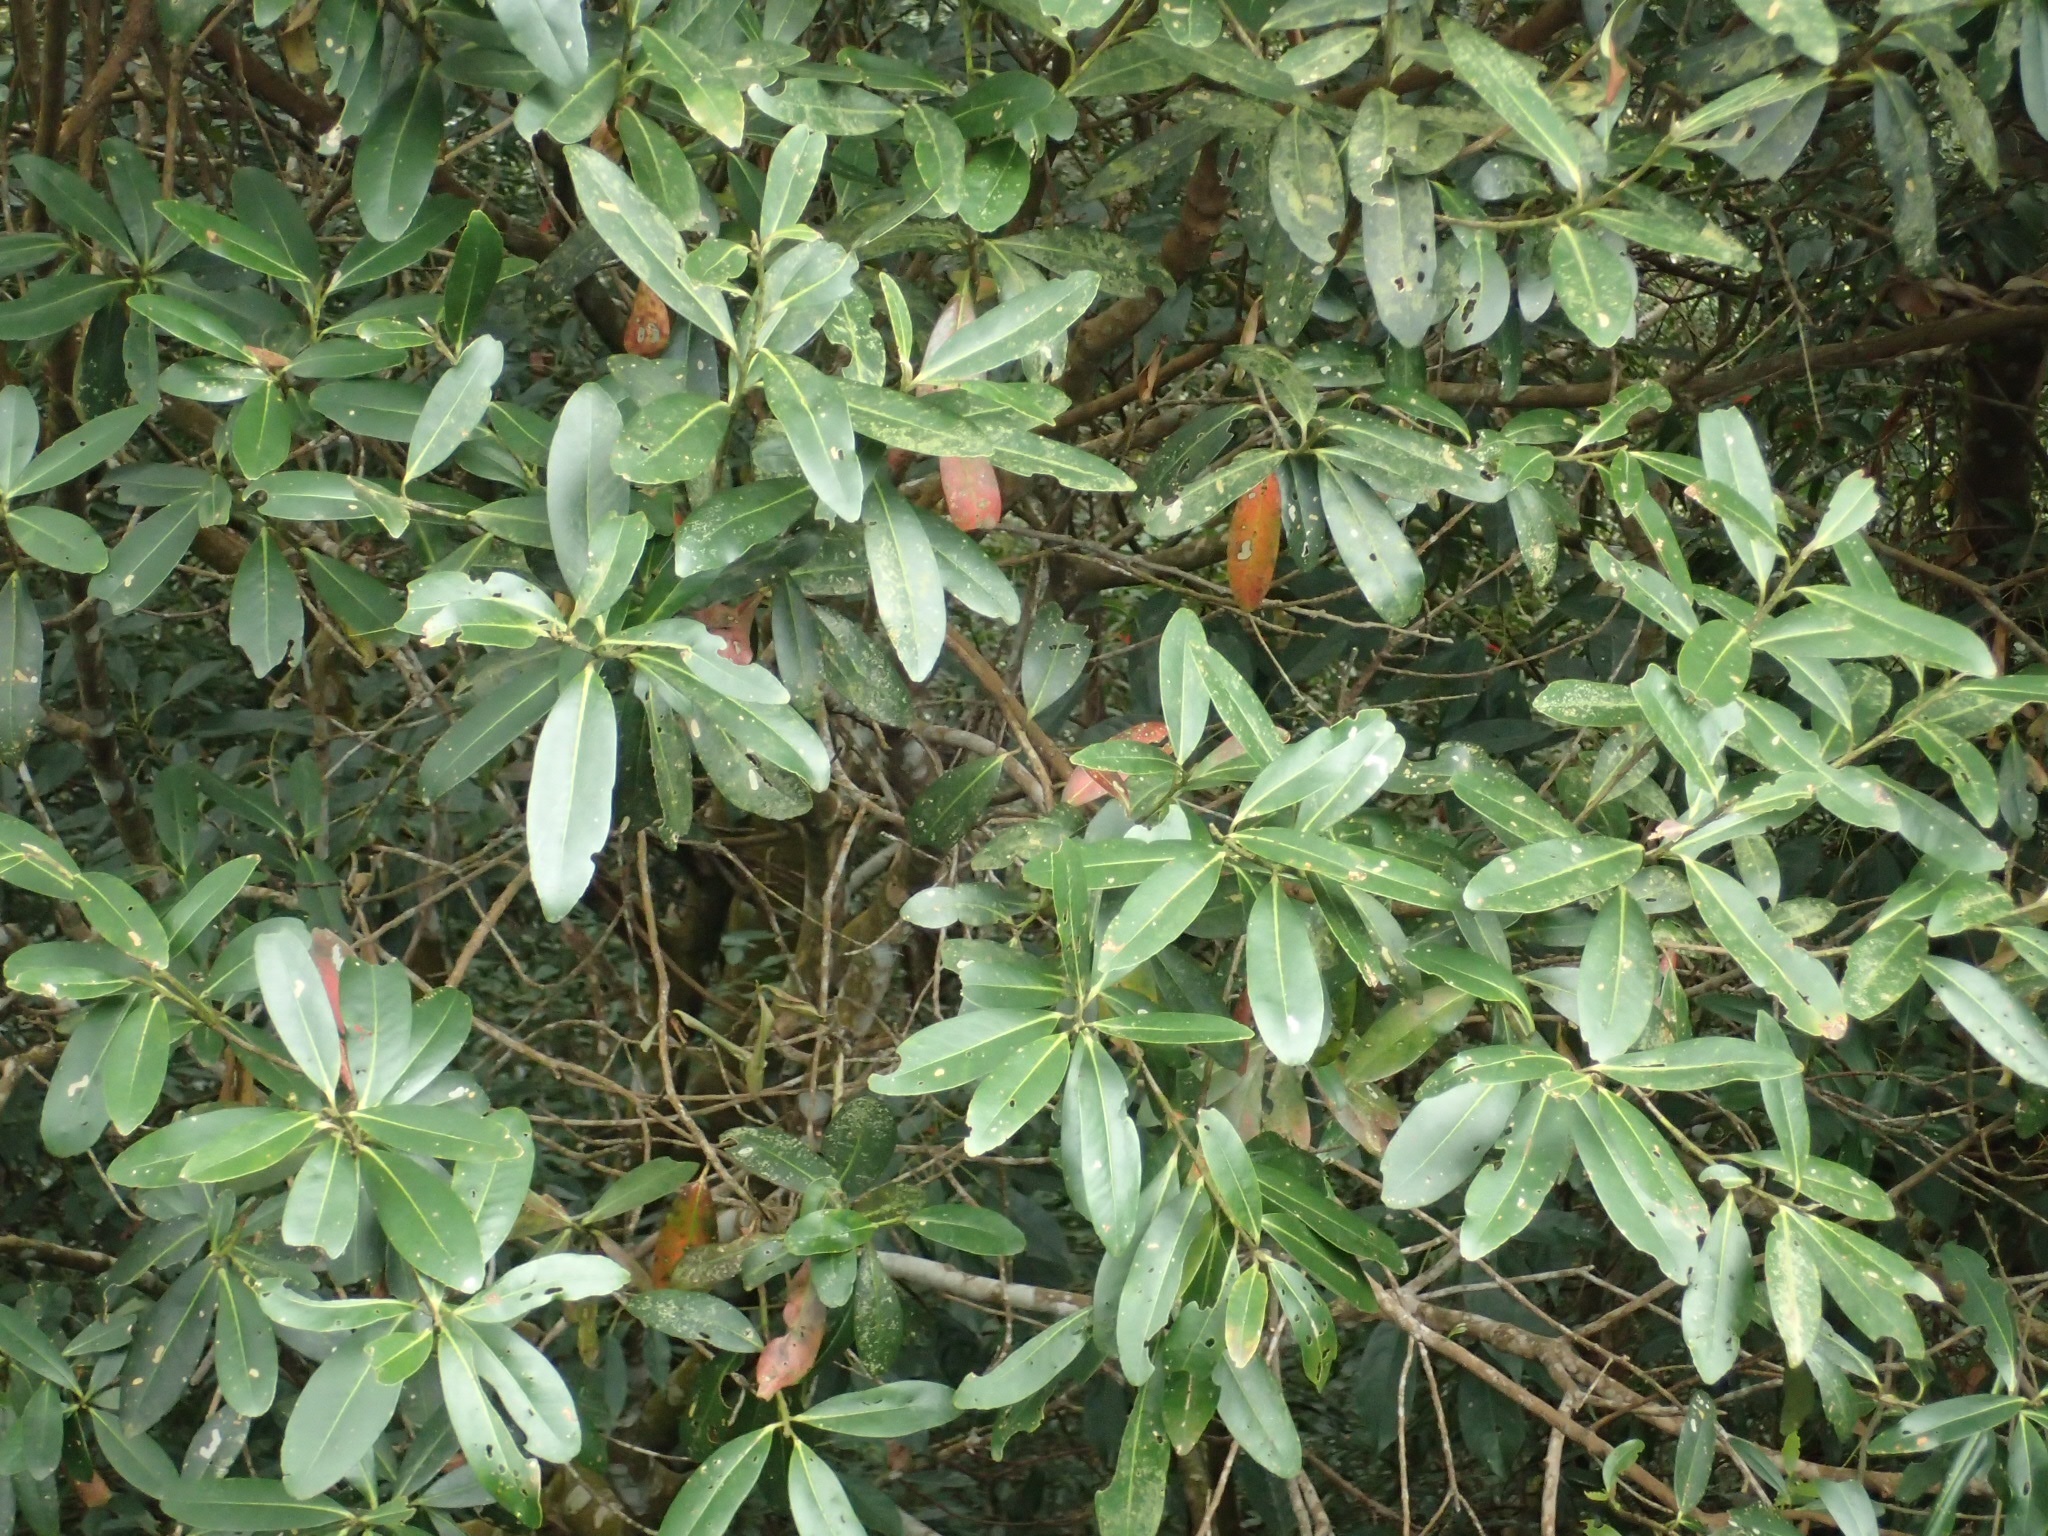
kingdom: Plantae
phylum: Tracheophyta
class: Magnoliopsida
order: Ericales
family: Theaceae
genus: Polyspora
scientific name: Polyspora axillaris
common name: Fried egg tree
